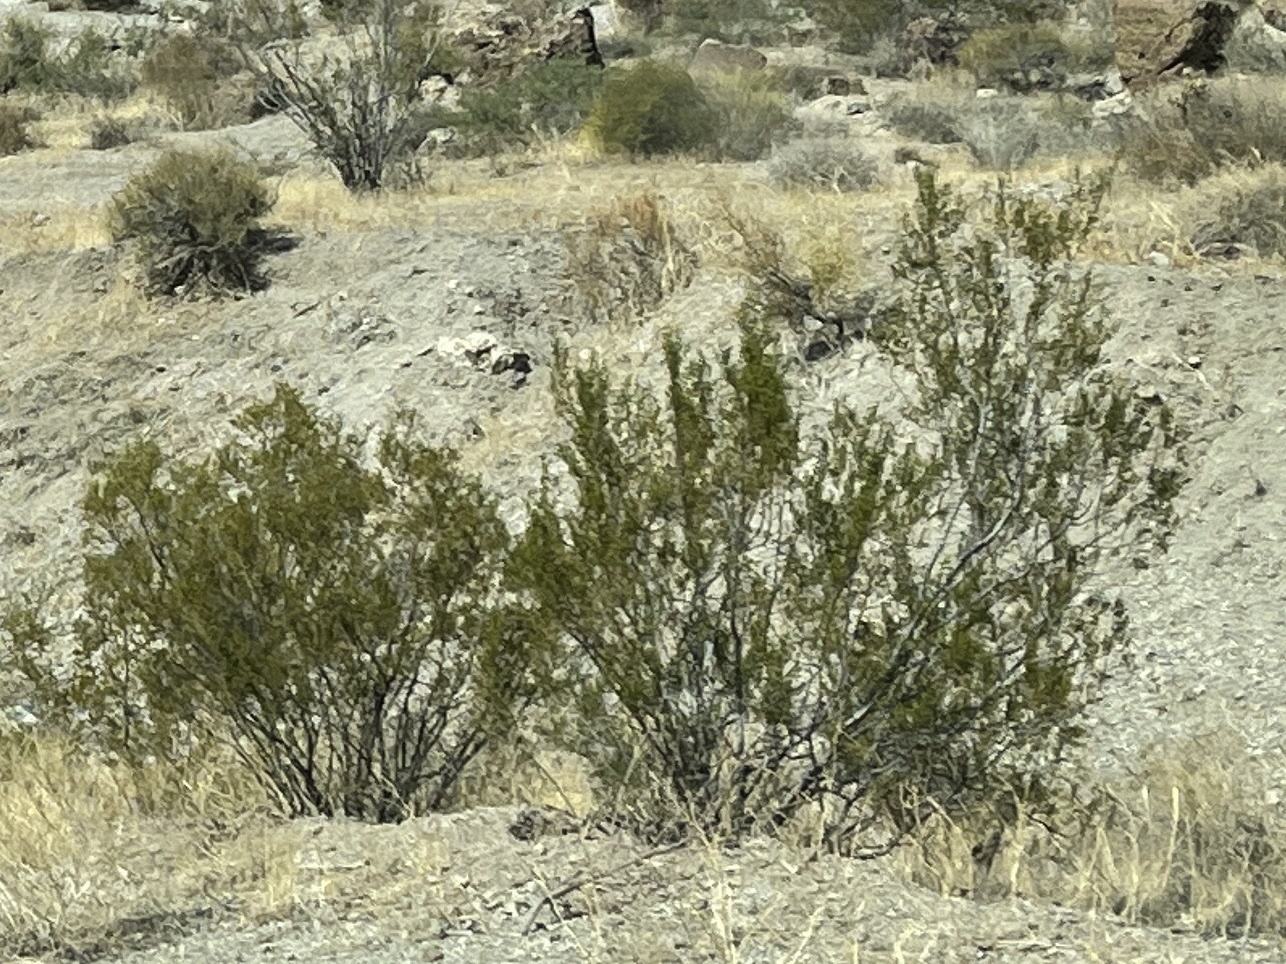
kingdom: Plantae
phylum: Tracheophyta
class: Magnoliopsida
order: Zygophyllales
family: Zygophyllaceae
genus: Larrea
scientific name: Larrea tridentata
